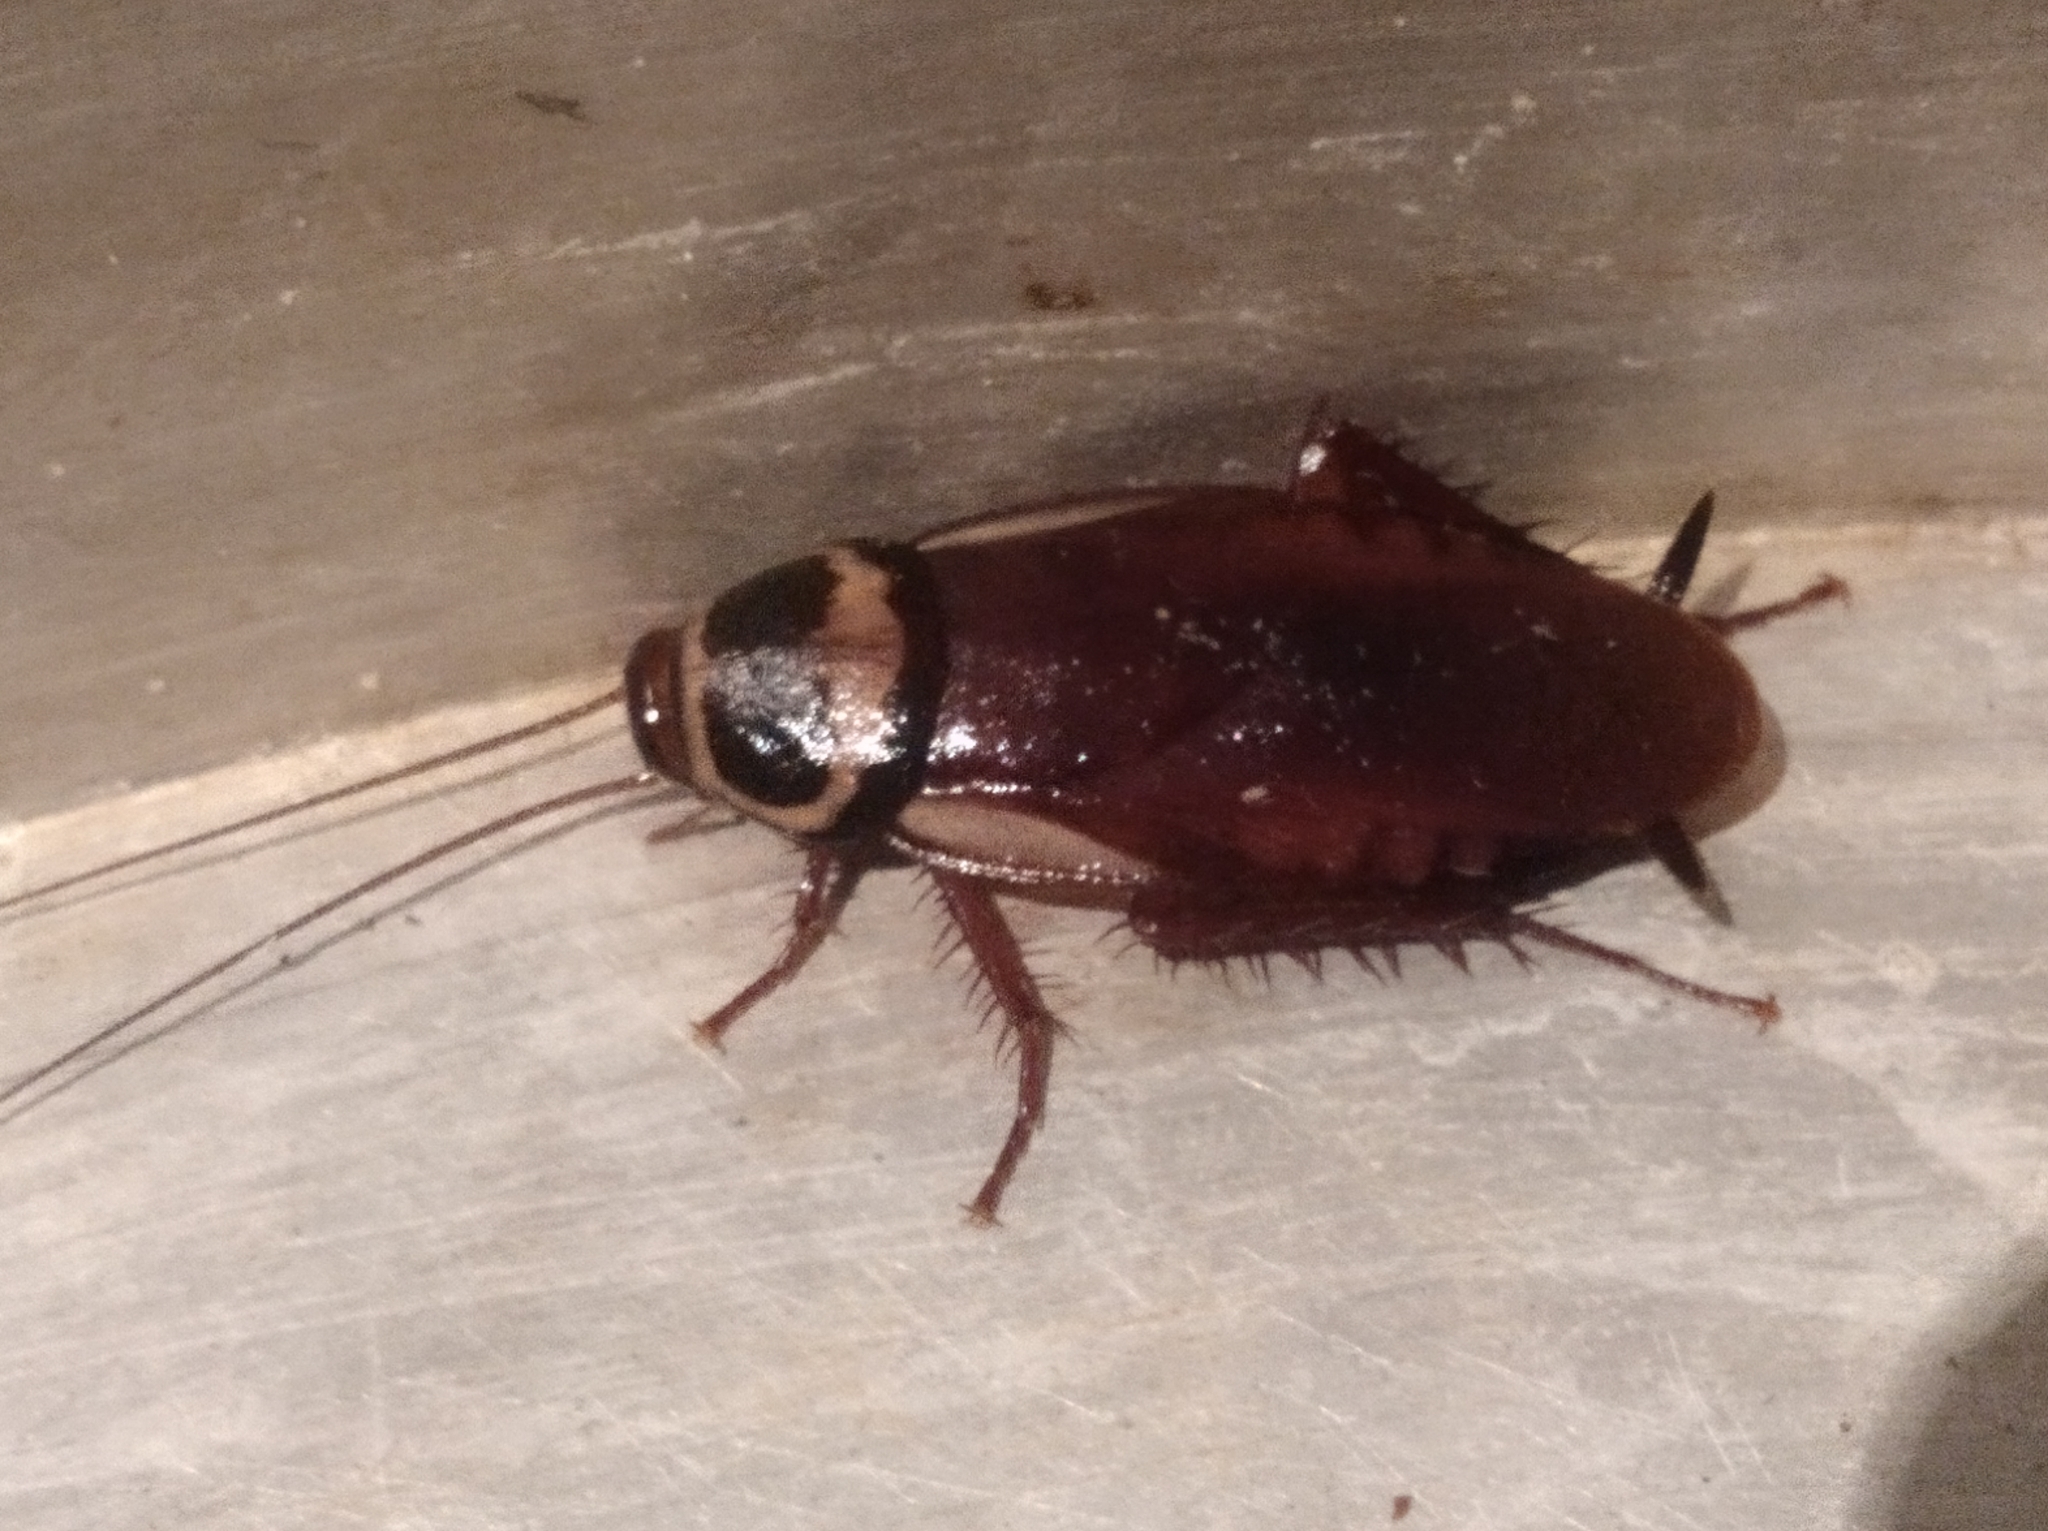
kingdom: Animalia
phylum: Arthropoda
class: Insecta
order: Blattodea
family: Blattidae
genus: Periplaneta
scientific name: Periplaneta australasiae
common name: Australian cockroach
